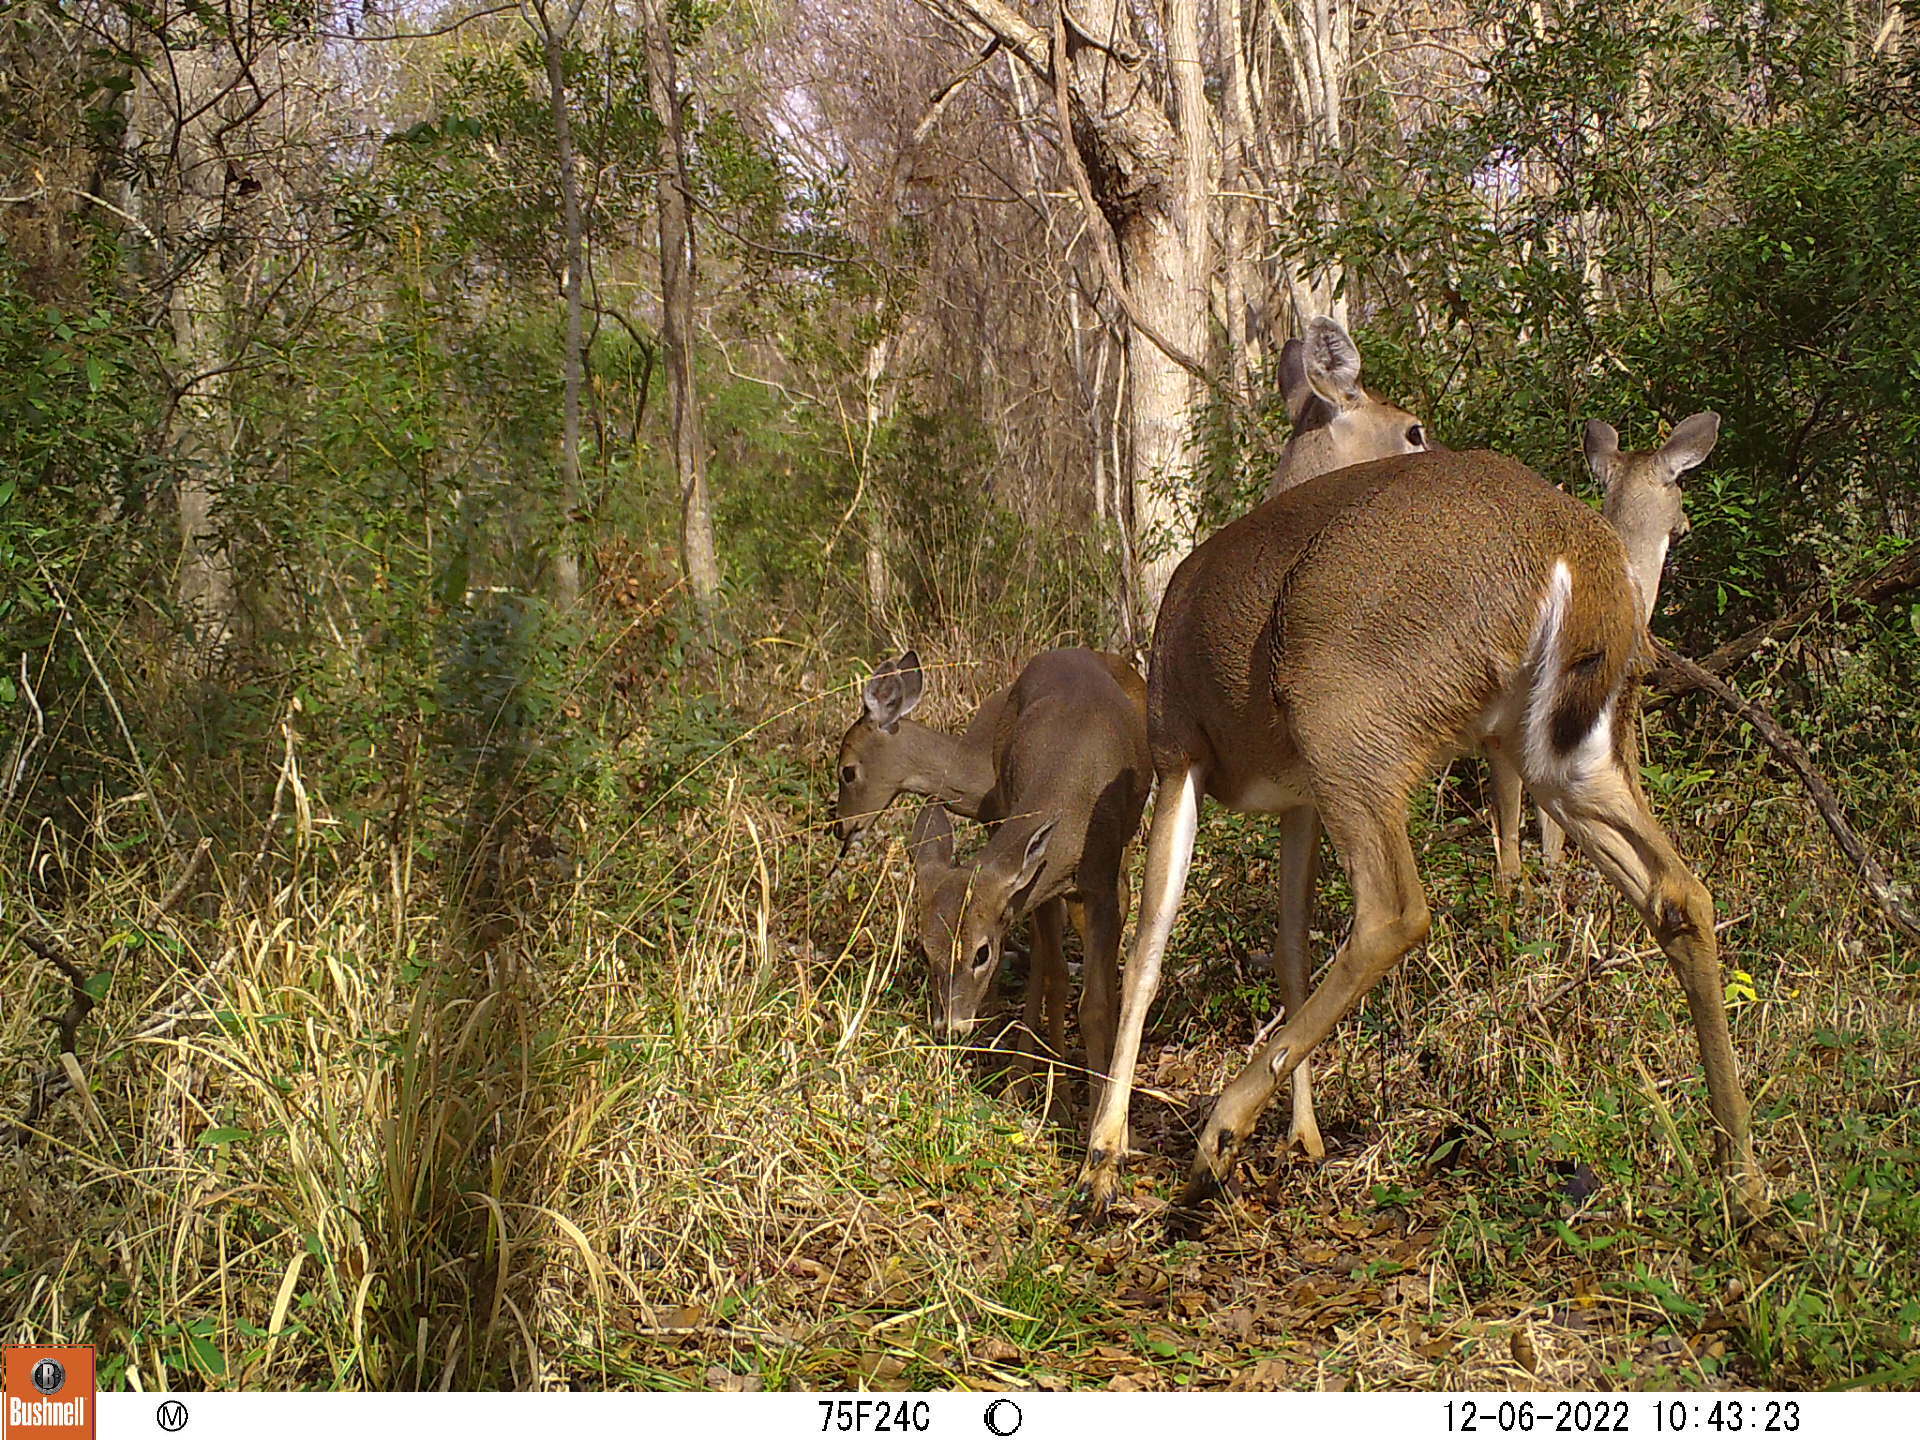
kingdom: Animalia
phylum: Chordata
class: Mammalia
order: Artiodactyla
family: Cervidae
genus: Odocoileus
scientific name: Odocoileus virginianus
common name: White-tailed deer
